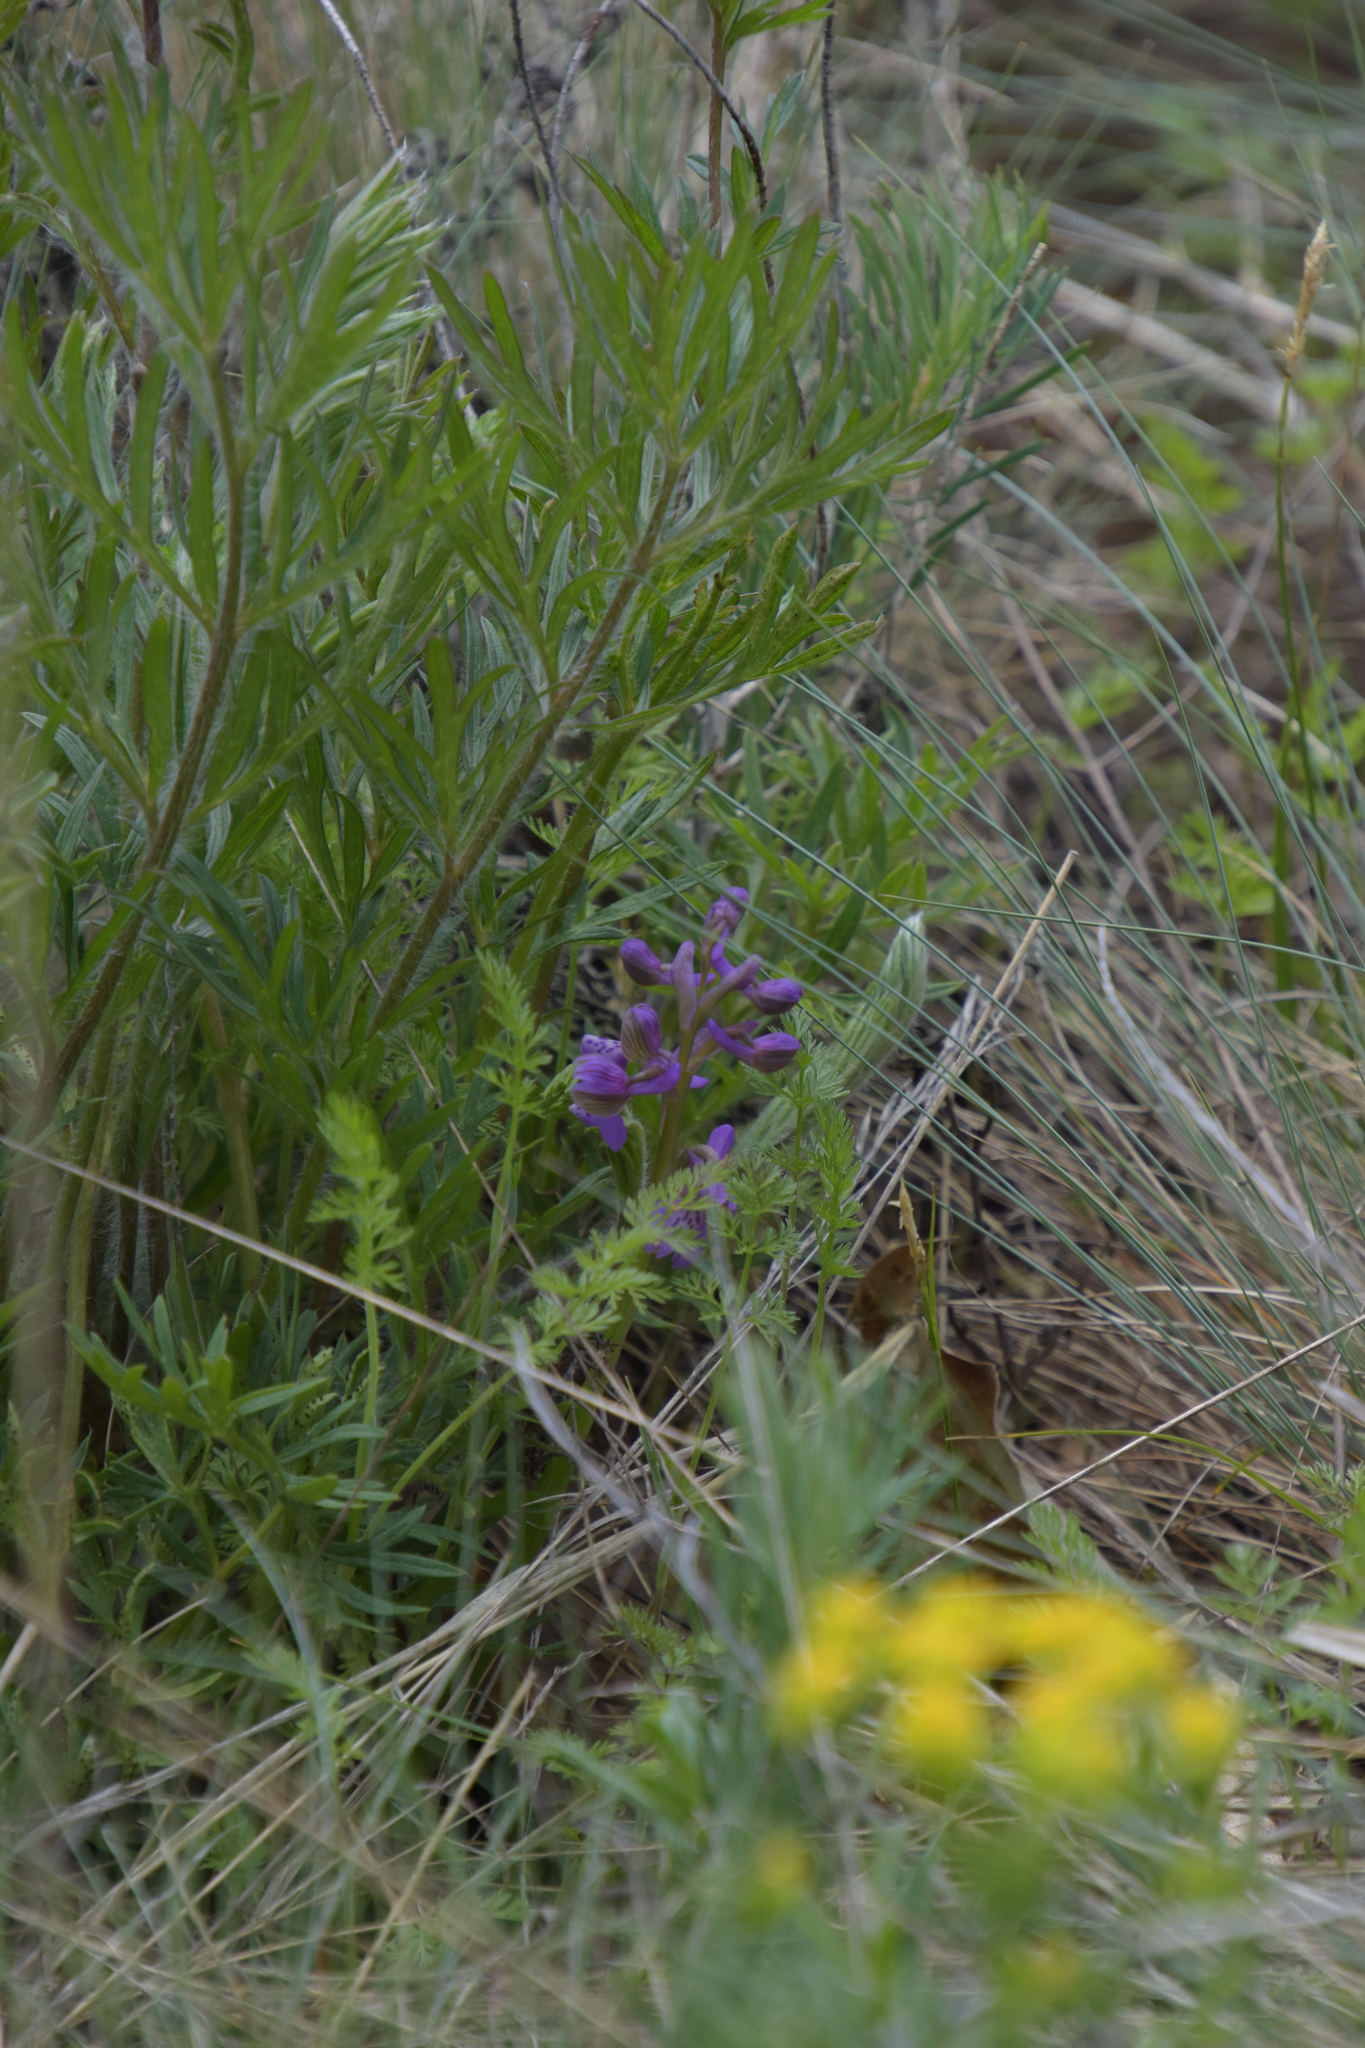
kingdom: Plantae
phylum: Tracheophyta
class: Liliopsida
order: Asparagales
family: Orchidaceae
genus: Anacamptis
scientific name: Anacamptis morio
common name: Green-winged orchid
